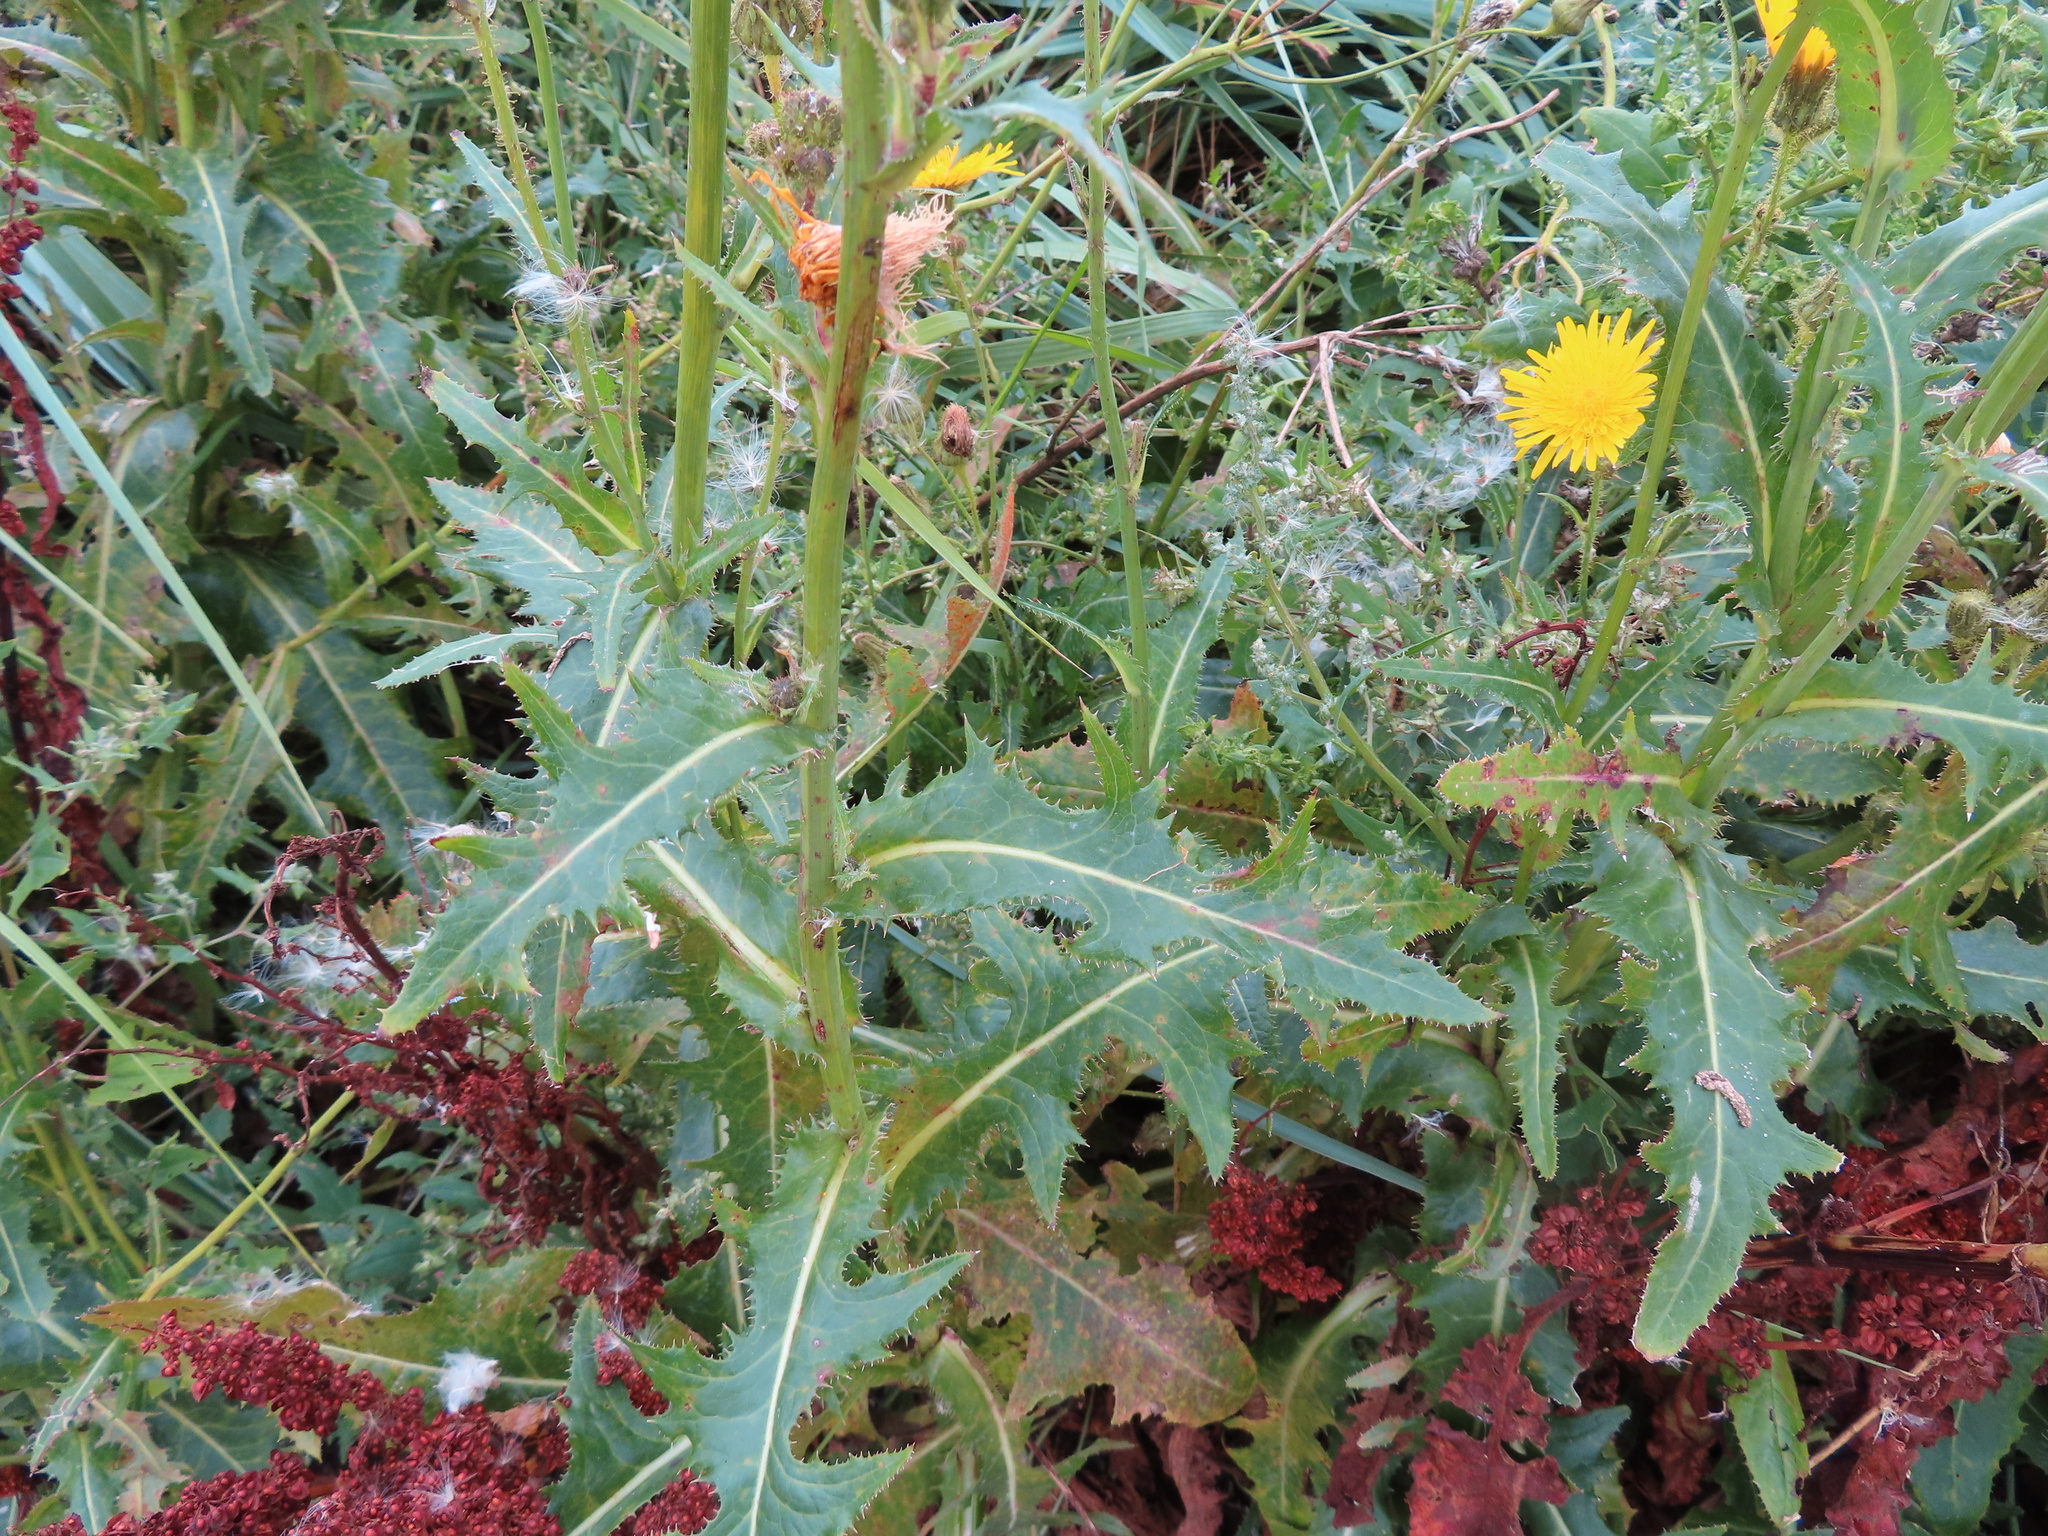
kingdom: Plantae
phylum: Tracheophyta
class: Magnoliopsida
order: Asterales
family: Asteraceae
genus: Sonchus
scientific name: Sonchus arvensis
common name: Perennial sow-thistle
